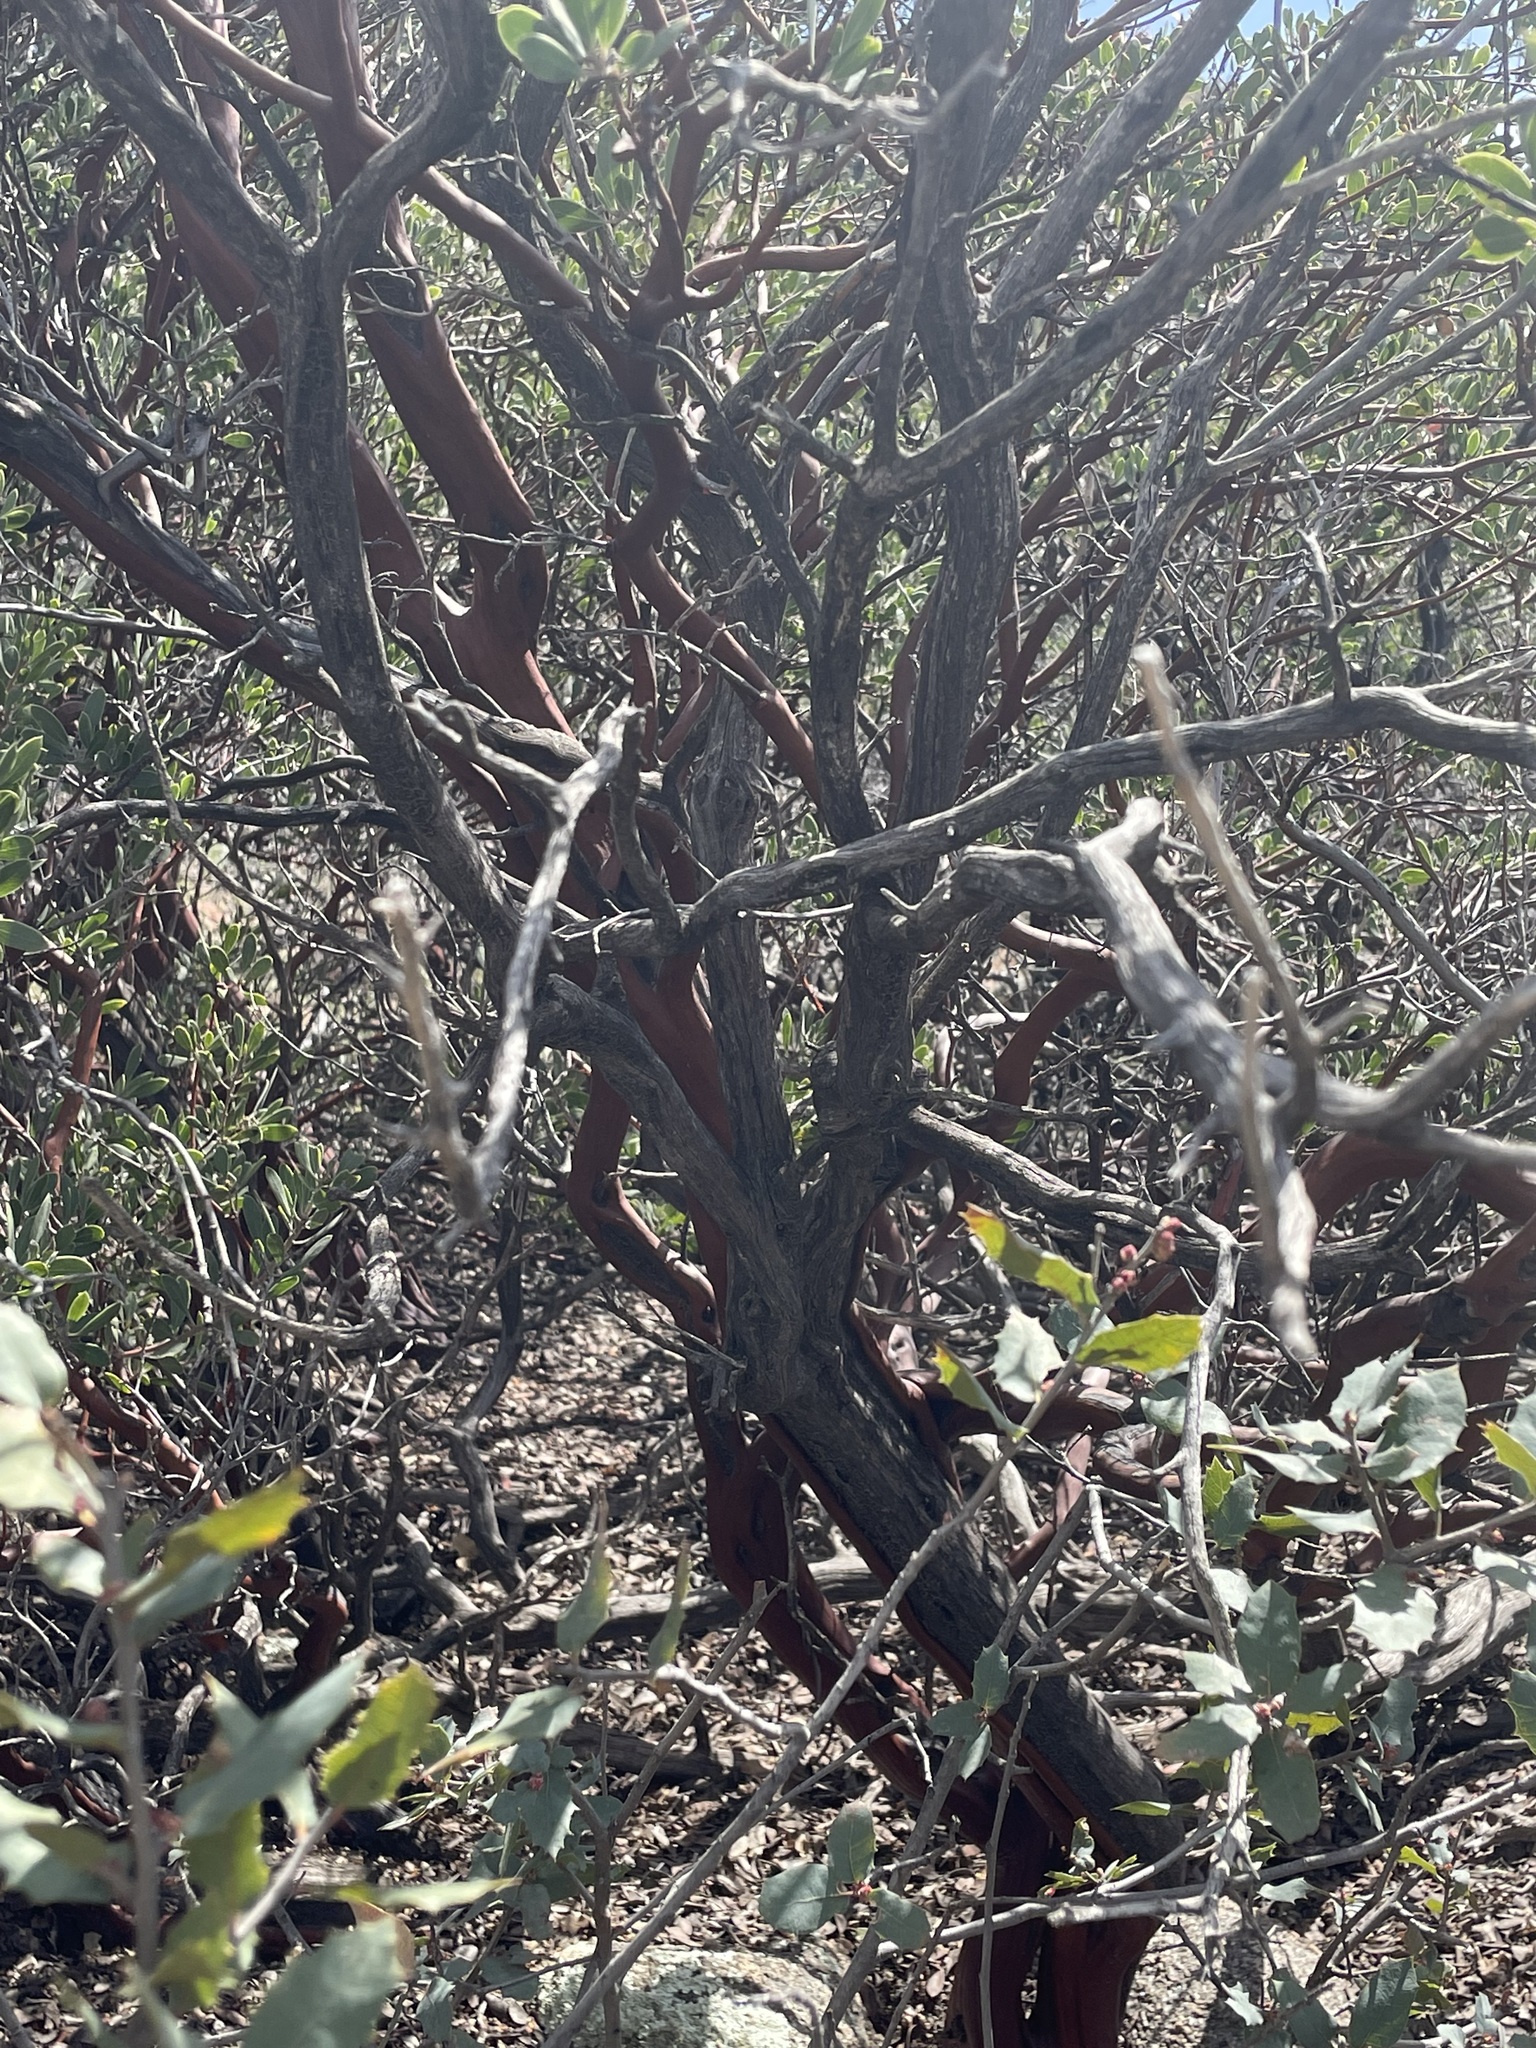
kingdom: Plantae
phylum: Tracheophyta
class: Magnoliopsida
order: Ericales
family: Ericaceae
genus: Arctostaphylos
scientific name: Arctostaphylos pungens
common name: Mexican manzanita
